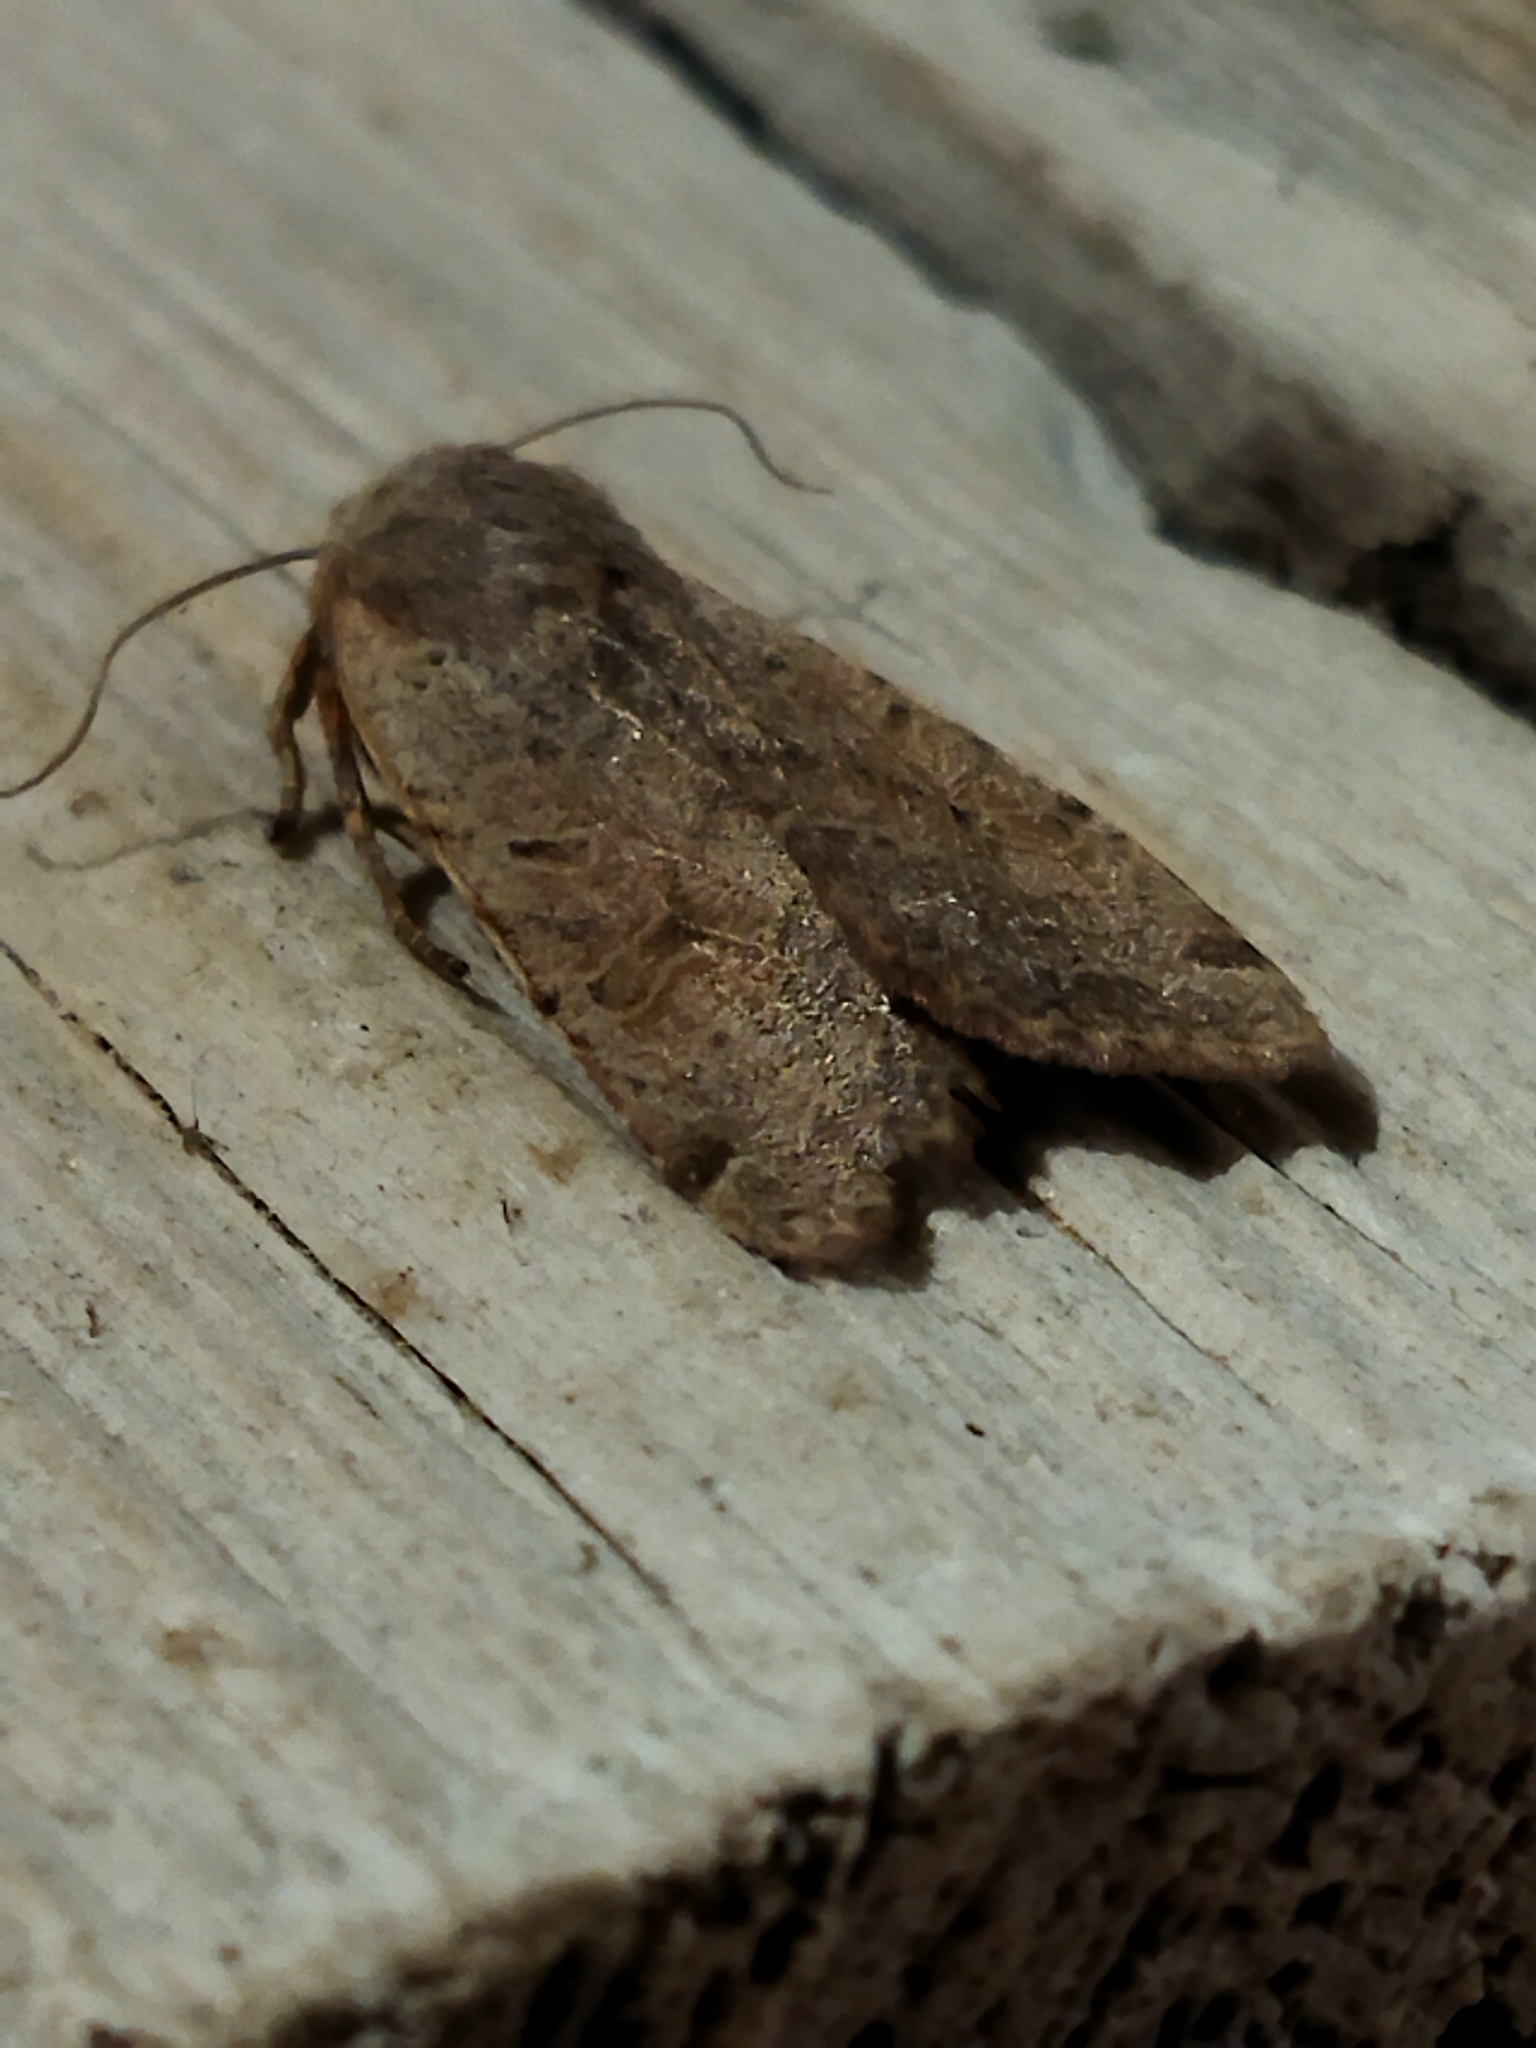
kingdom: Animalia
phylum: Arthropoda
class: Insecta
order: Lepidoptera
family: Noctuidae
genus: Agrochola
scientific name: Agrochola lychnidis
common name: Beaded chestnut
